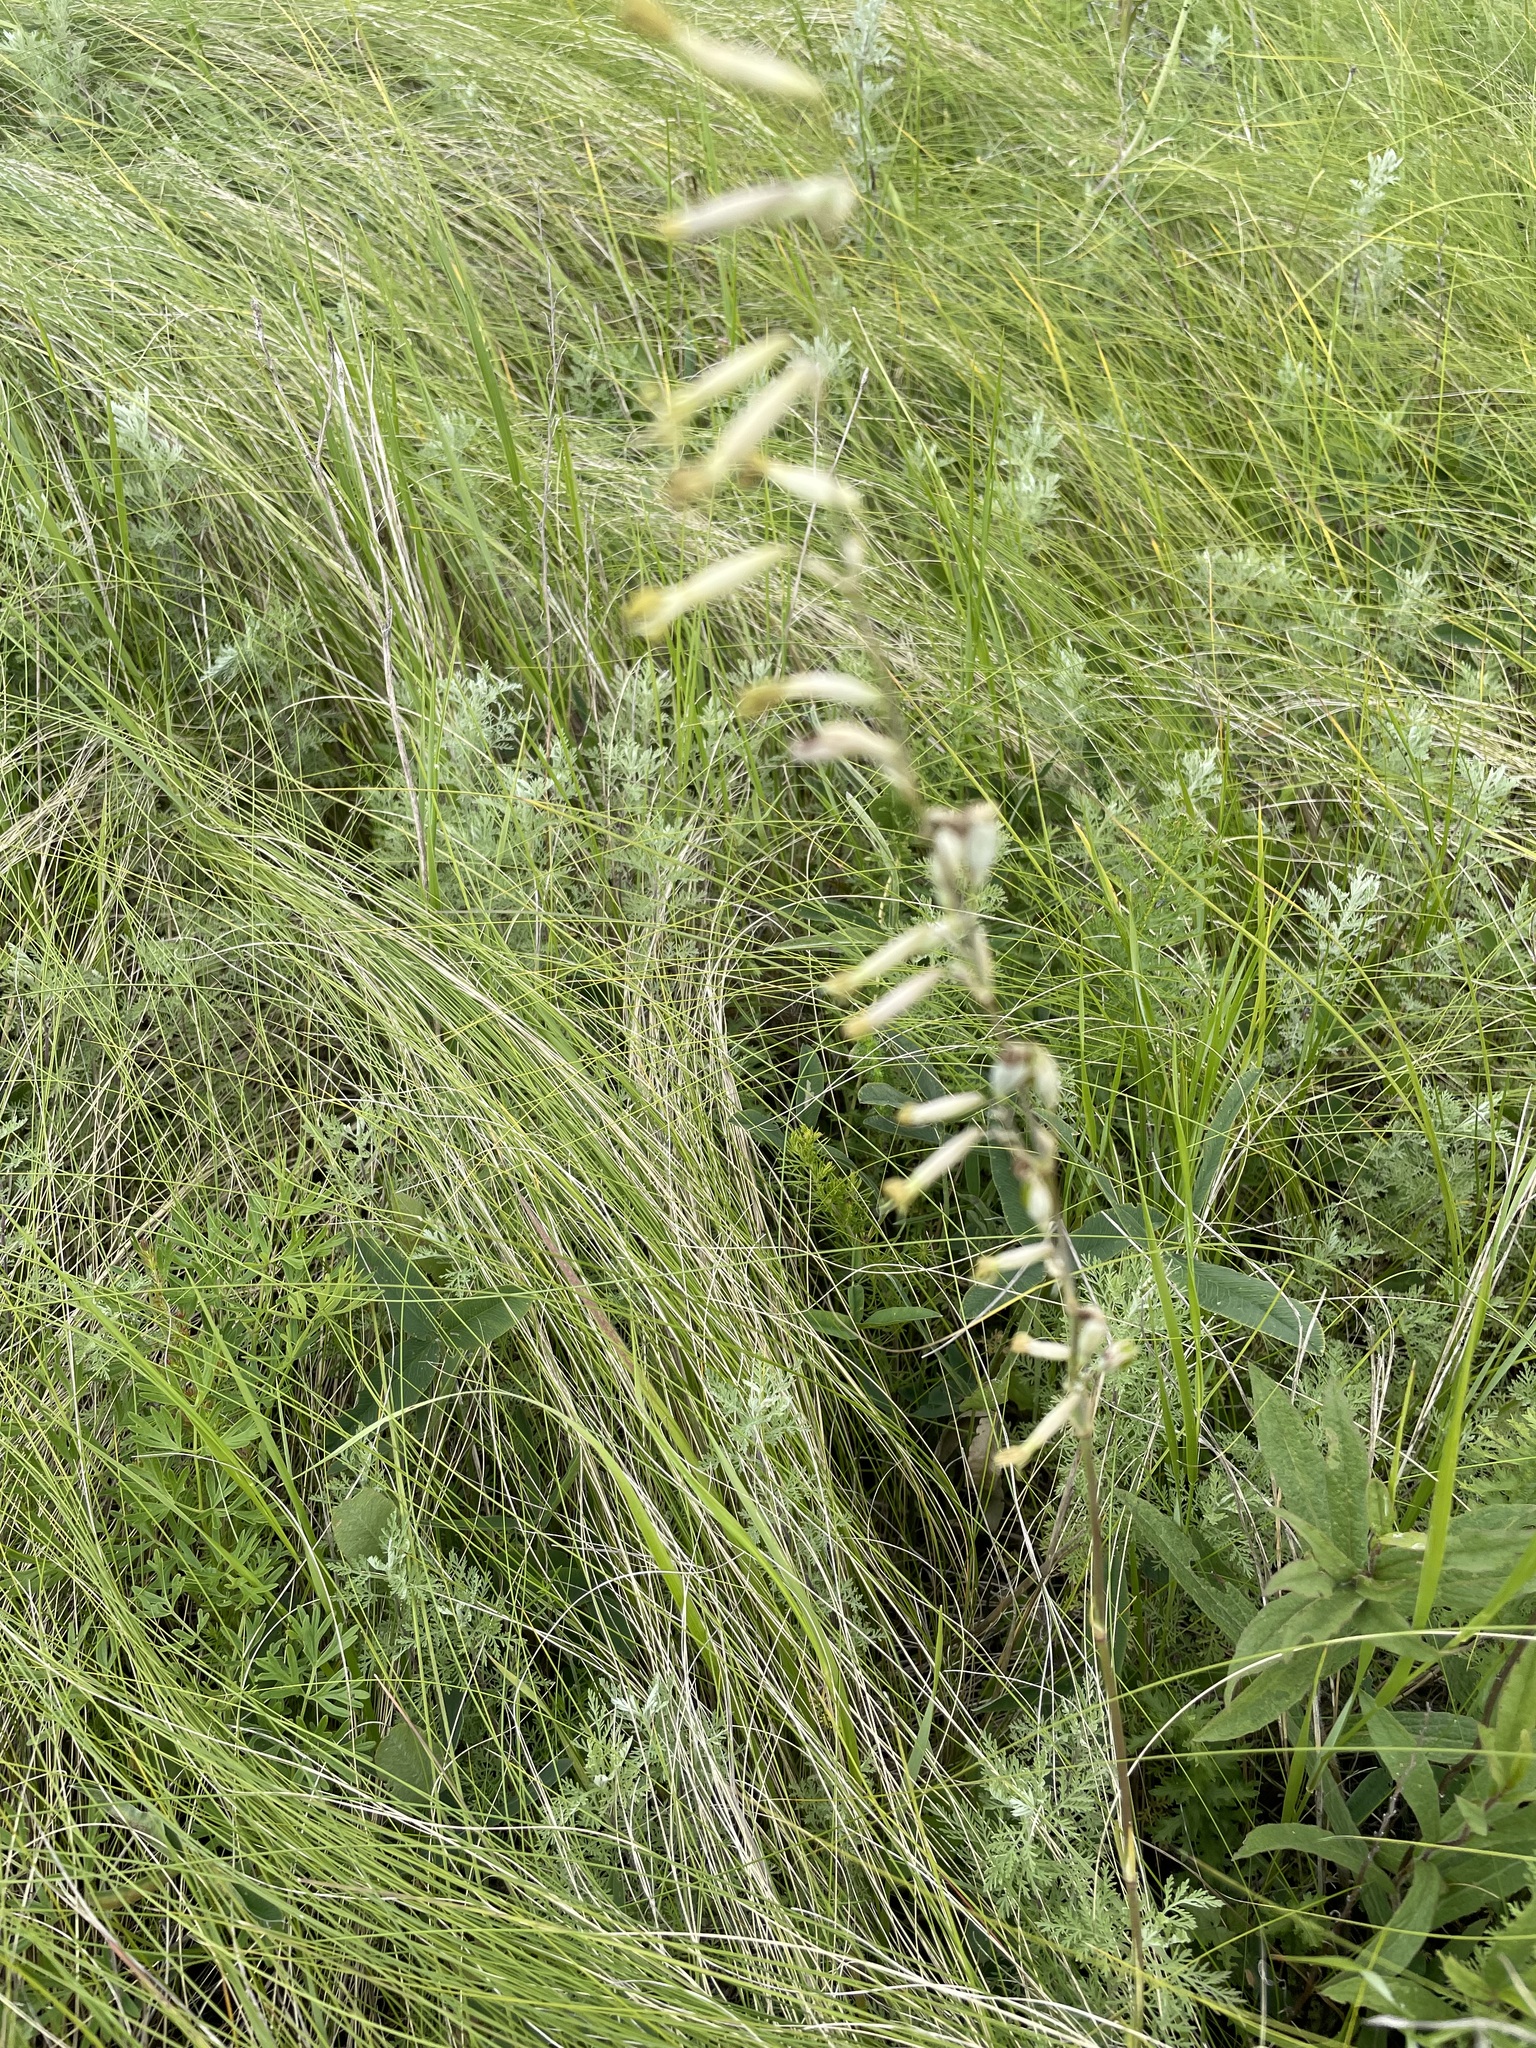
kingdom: Plantae
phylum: Tracheophyta
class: Magnoliopsida
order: Caryophyllales
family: Caryophyllaceae
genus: Silene
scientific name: Silene chlorantha
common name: Yellowgreen catchfly
